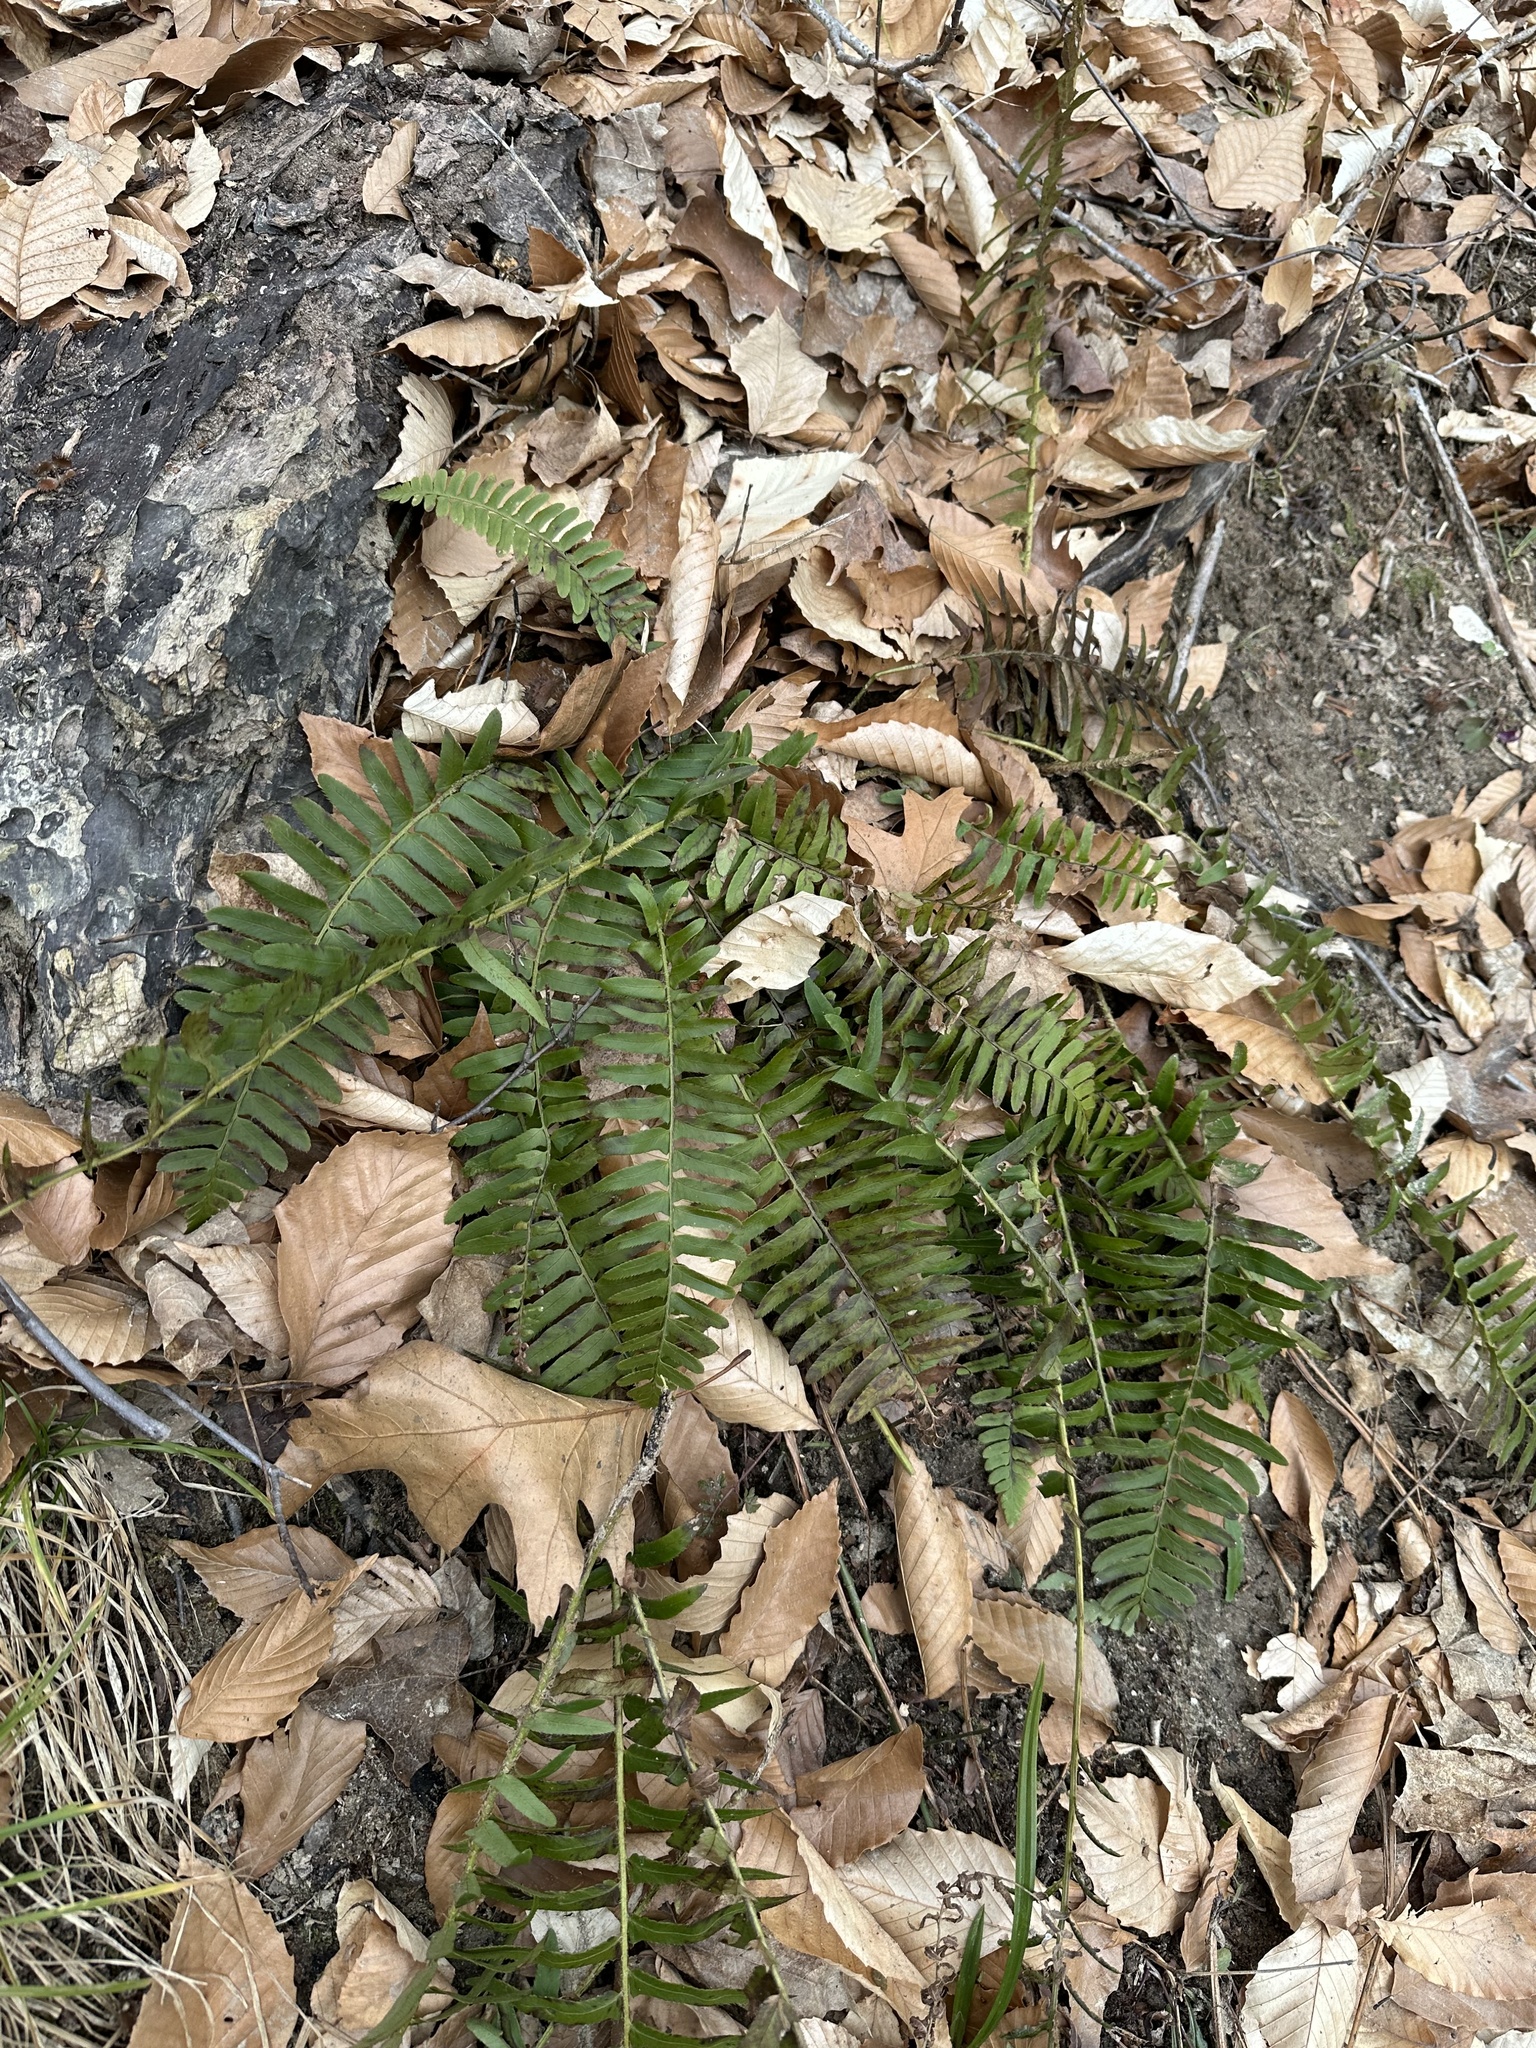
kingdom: Plantae
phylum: Tracheophyta
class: Polypodiopsida
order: Polypodiales
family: Dryopteridaceae
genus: Polystichum
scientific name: Polystichum acrostichoides
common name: Christmas fern
